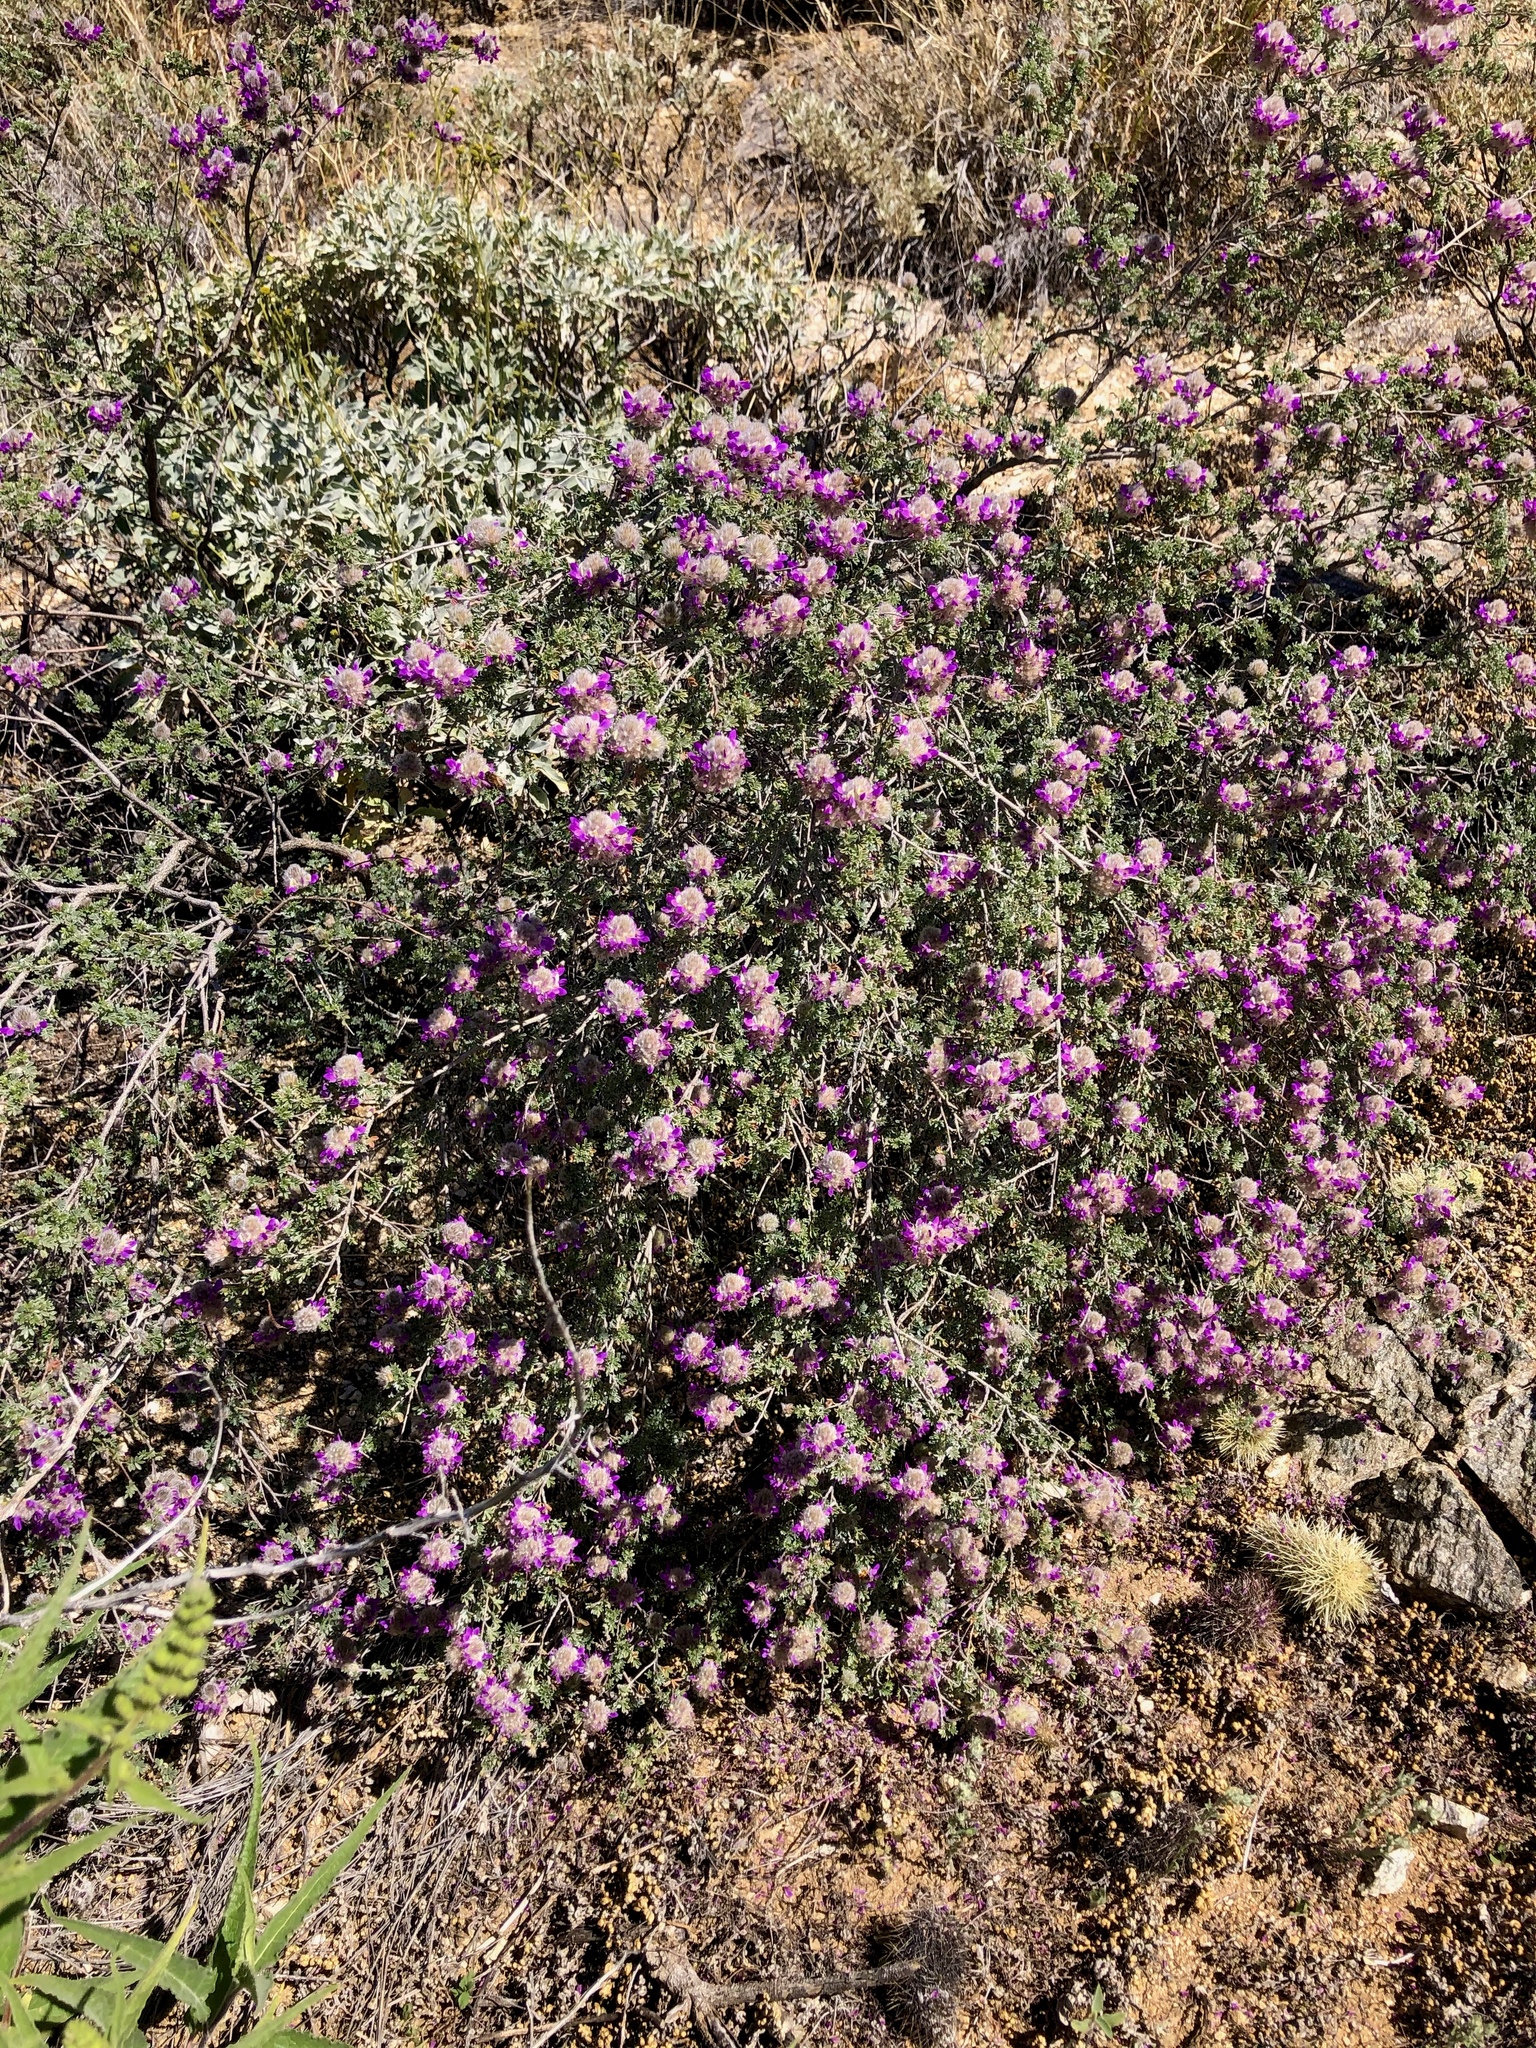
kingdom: Plantae
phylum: Tracheophyta
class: Magnoliopsida
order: Fabales
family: Fabaceae
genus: Dalea
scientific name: Dalea pulchra
